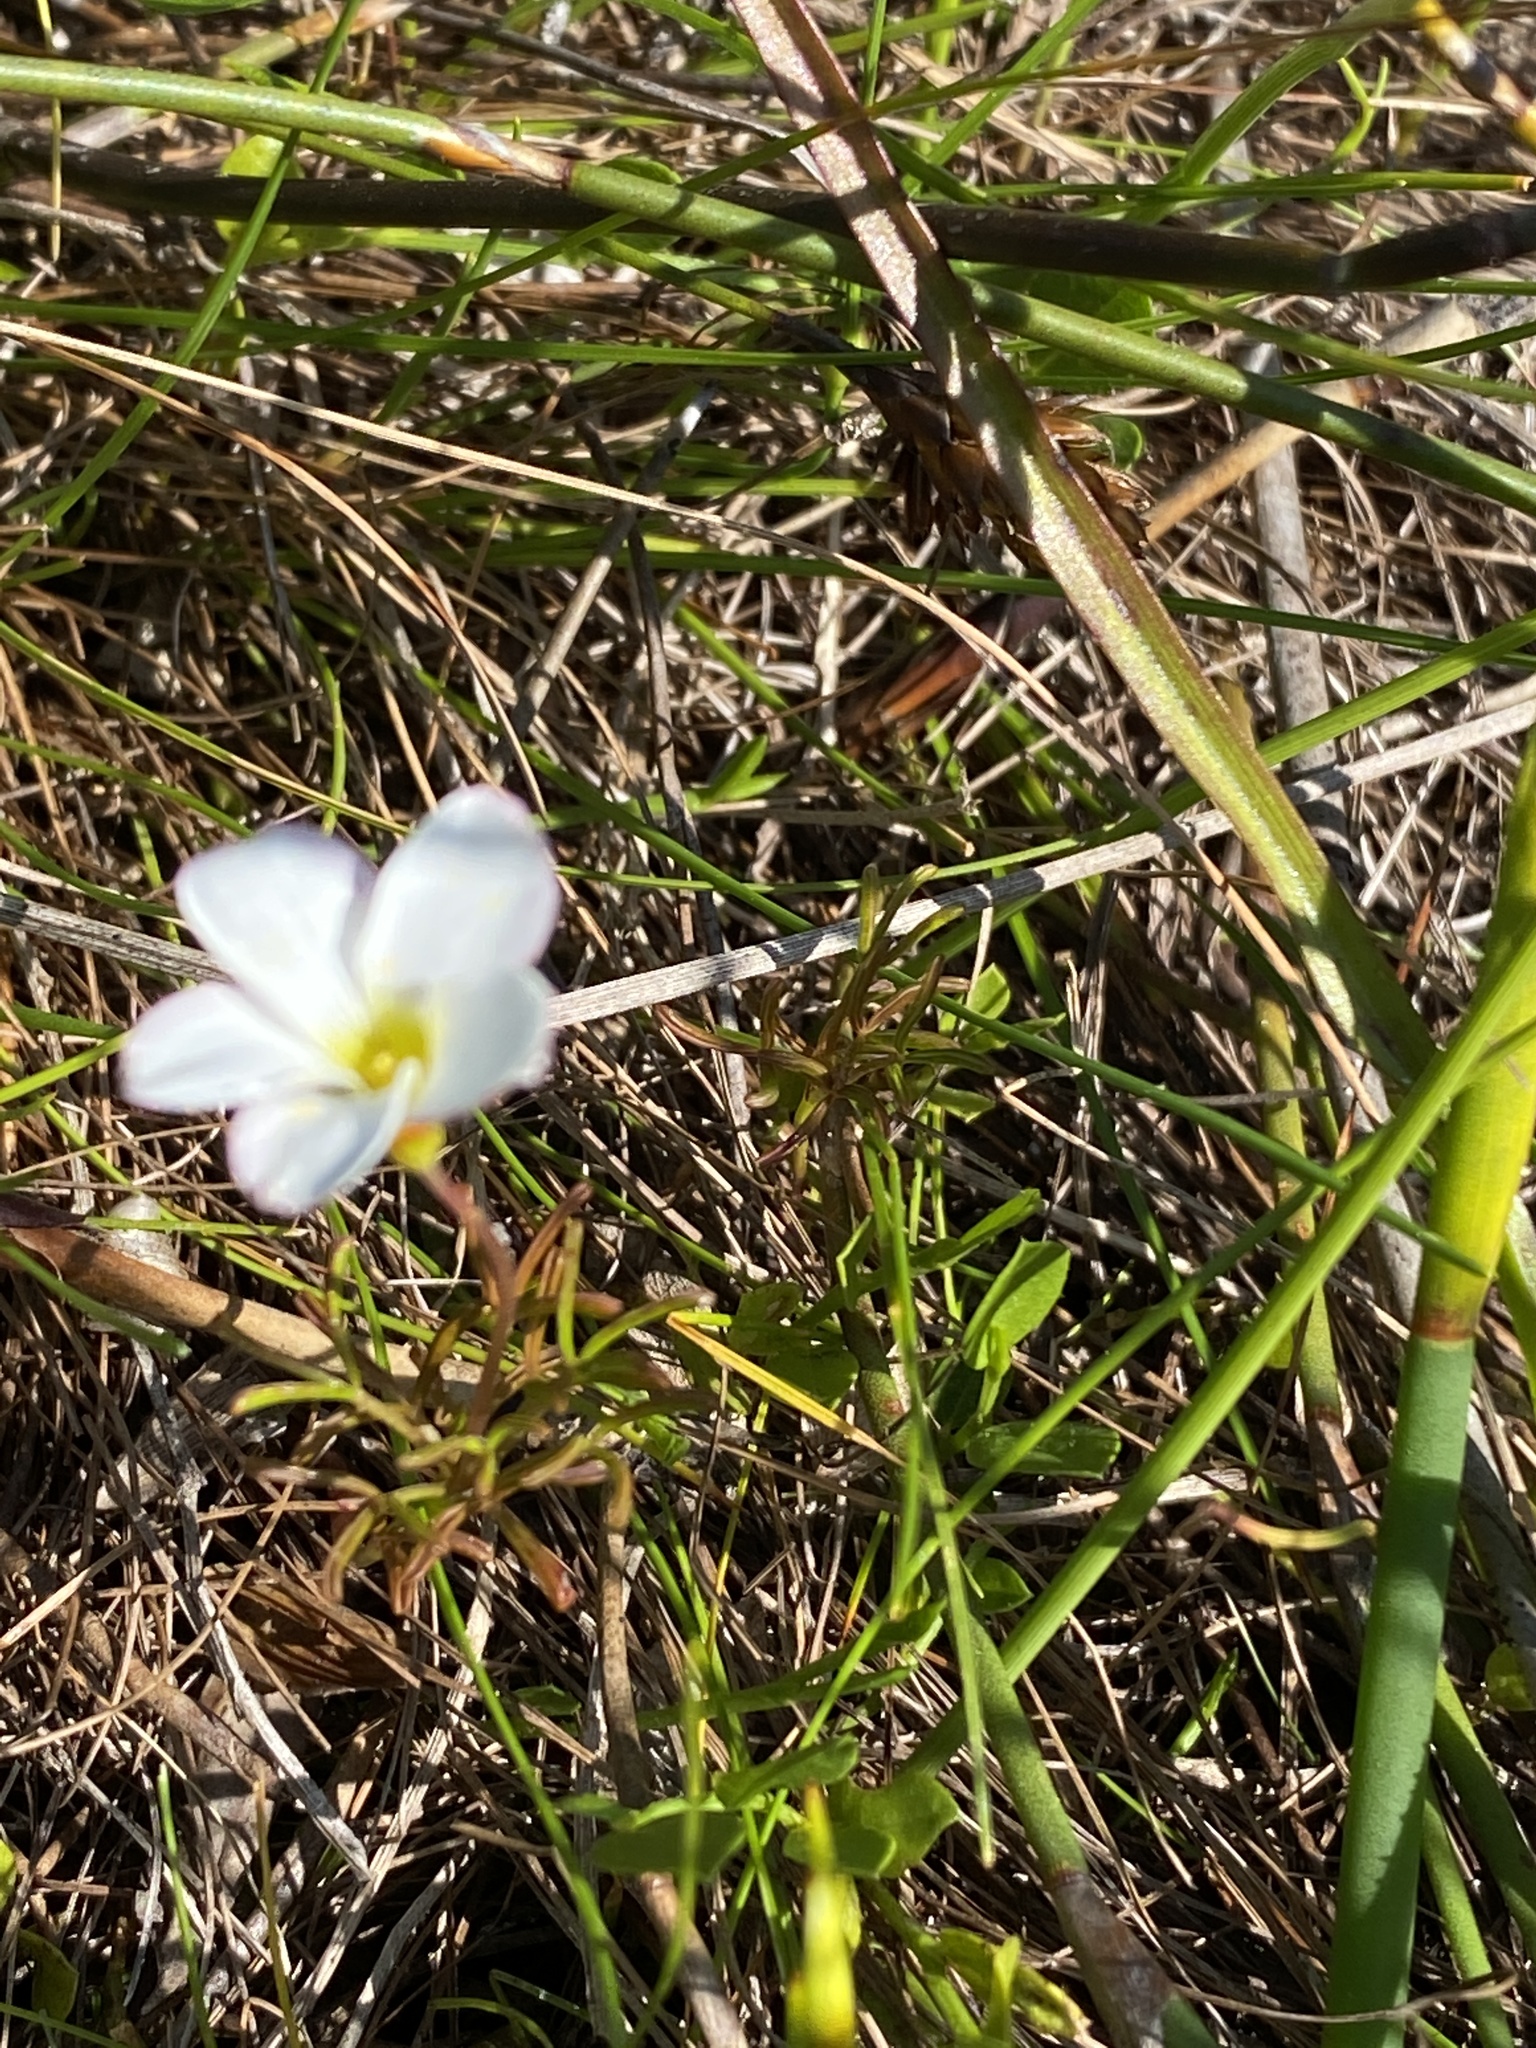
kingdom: Plantae
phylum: Tracheophyta
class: Magnoliopsida
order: Oxalidales
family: Oxalidaceae
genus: Oxalis
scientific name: Oxalis versicolor
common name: Peppermint rock oxalis
